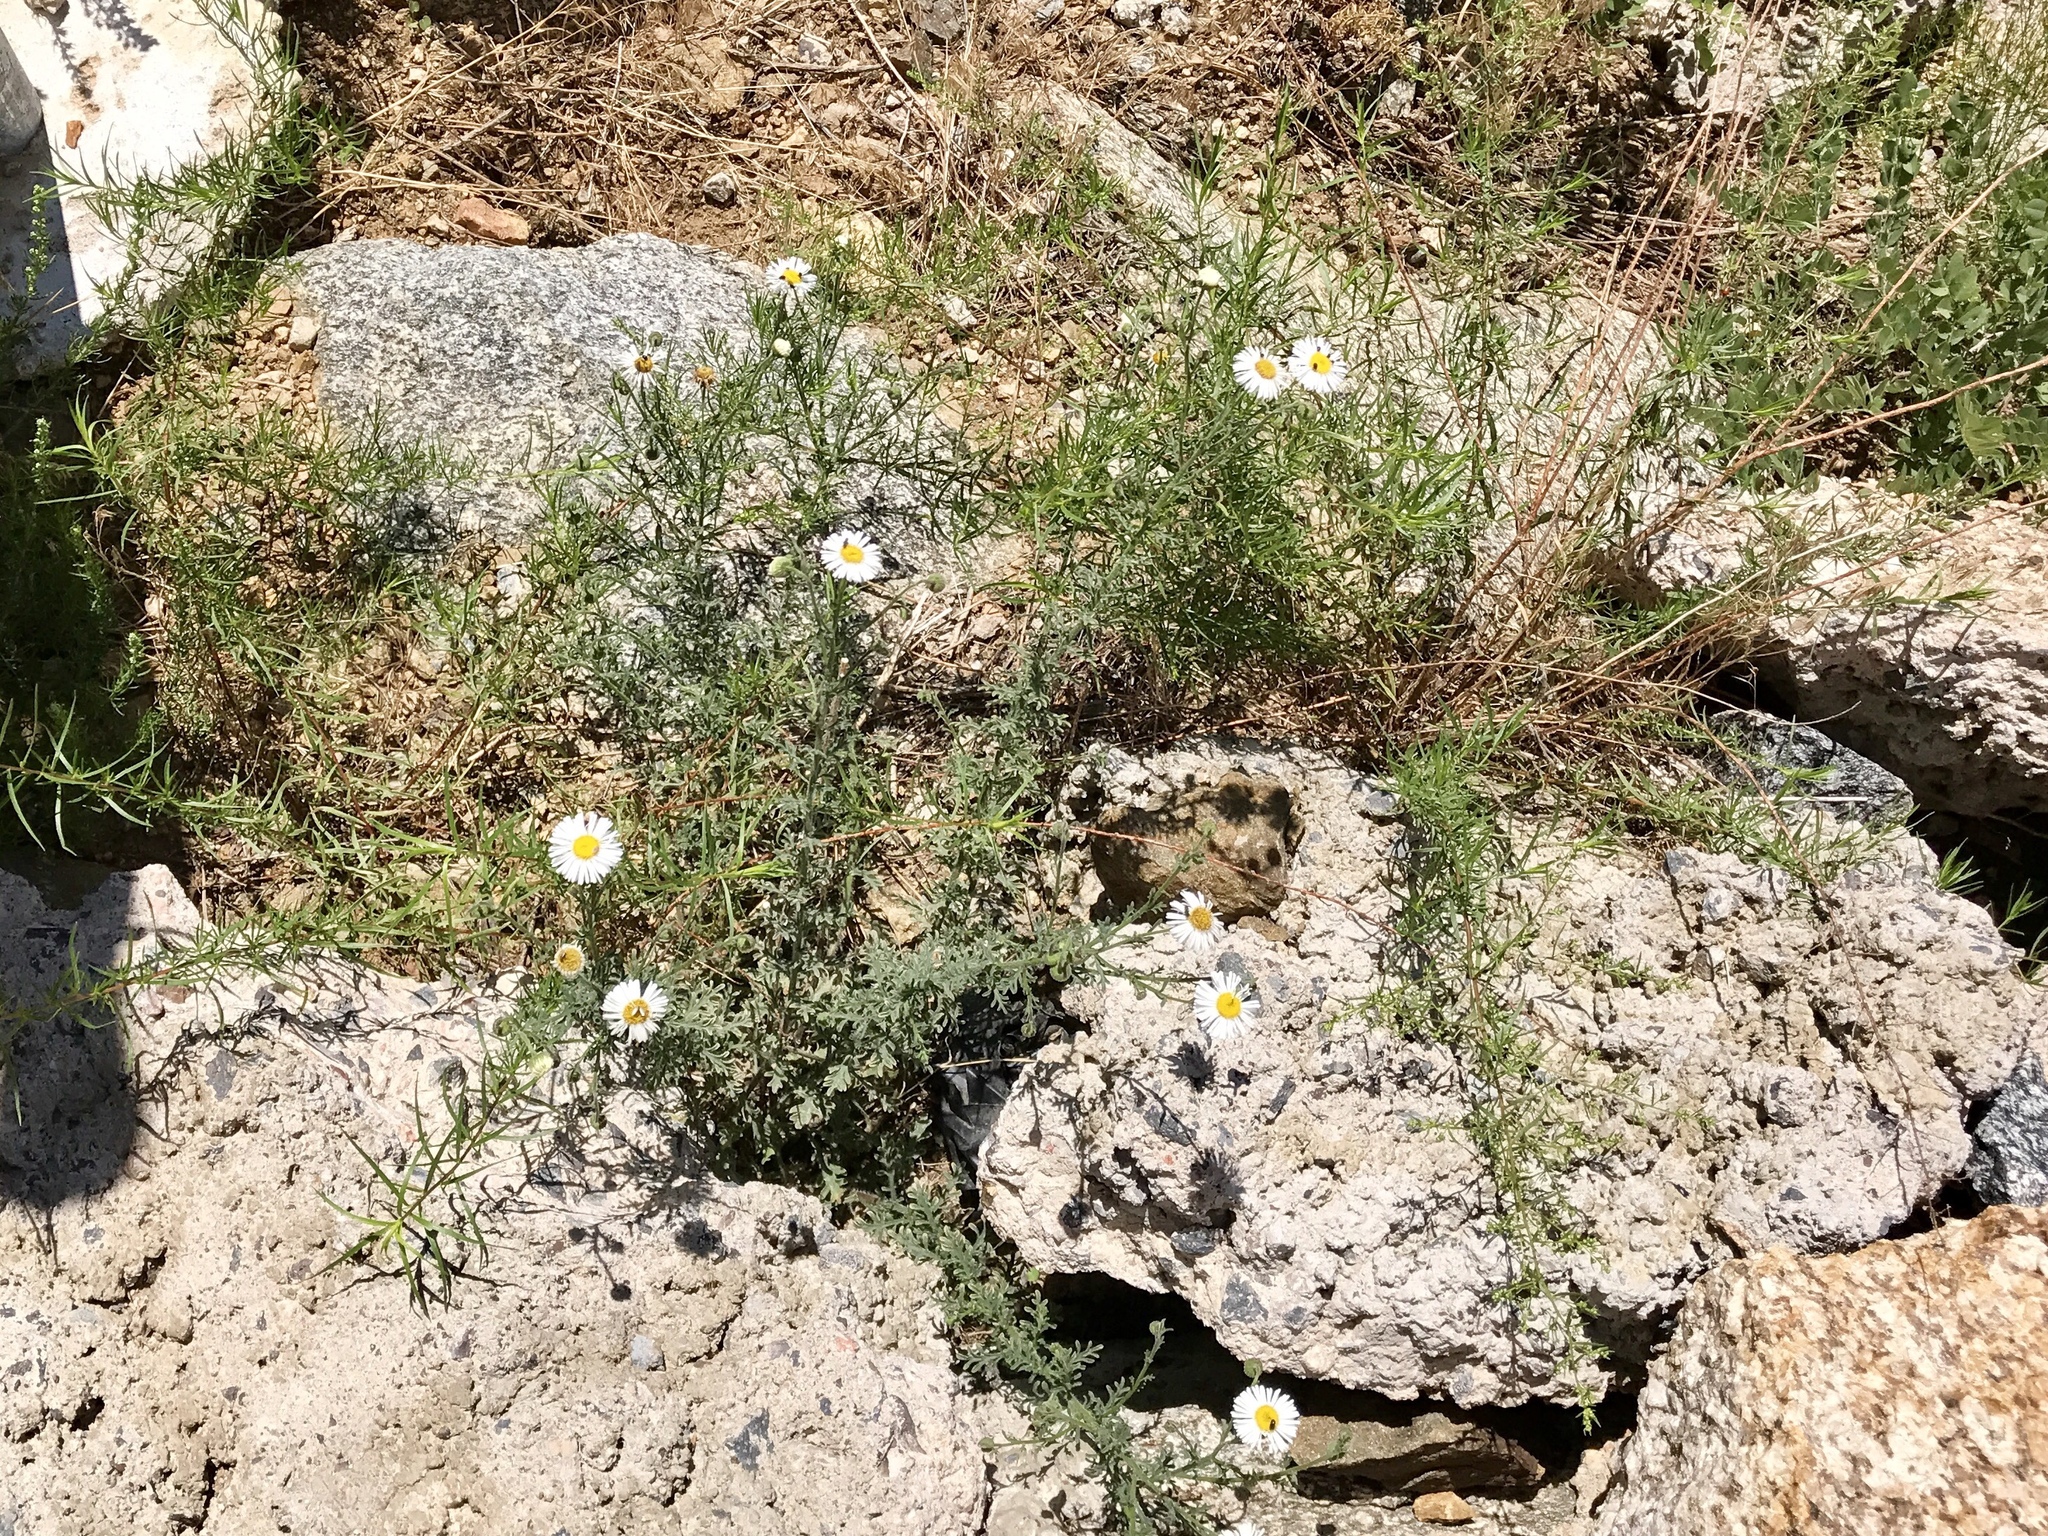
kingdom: Plantae
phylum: Tracheophyta
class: Magnoliopsida
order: Asterales
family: Asteraceae
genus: Erigeron
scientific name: Erigeron oreophilus
